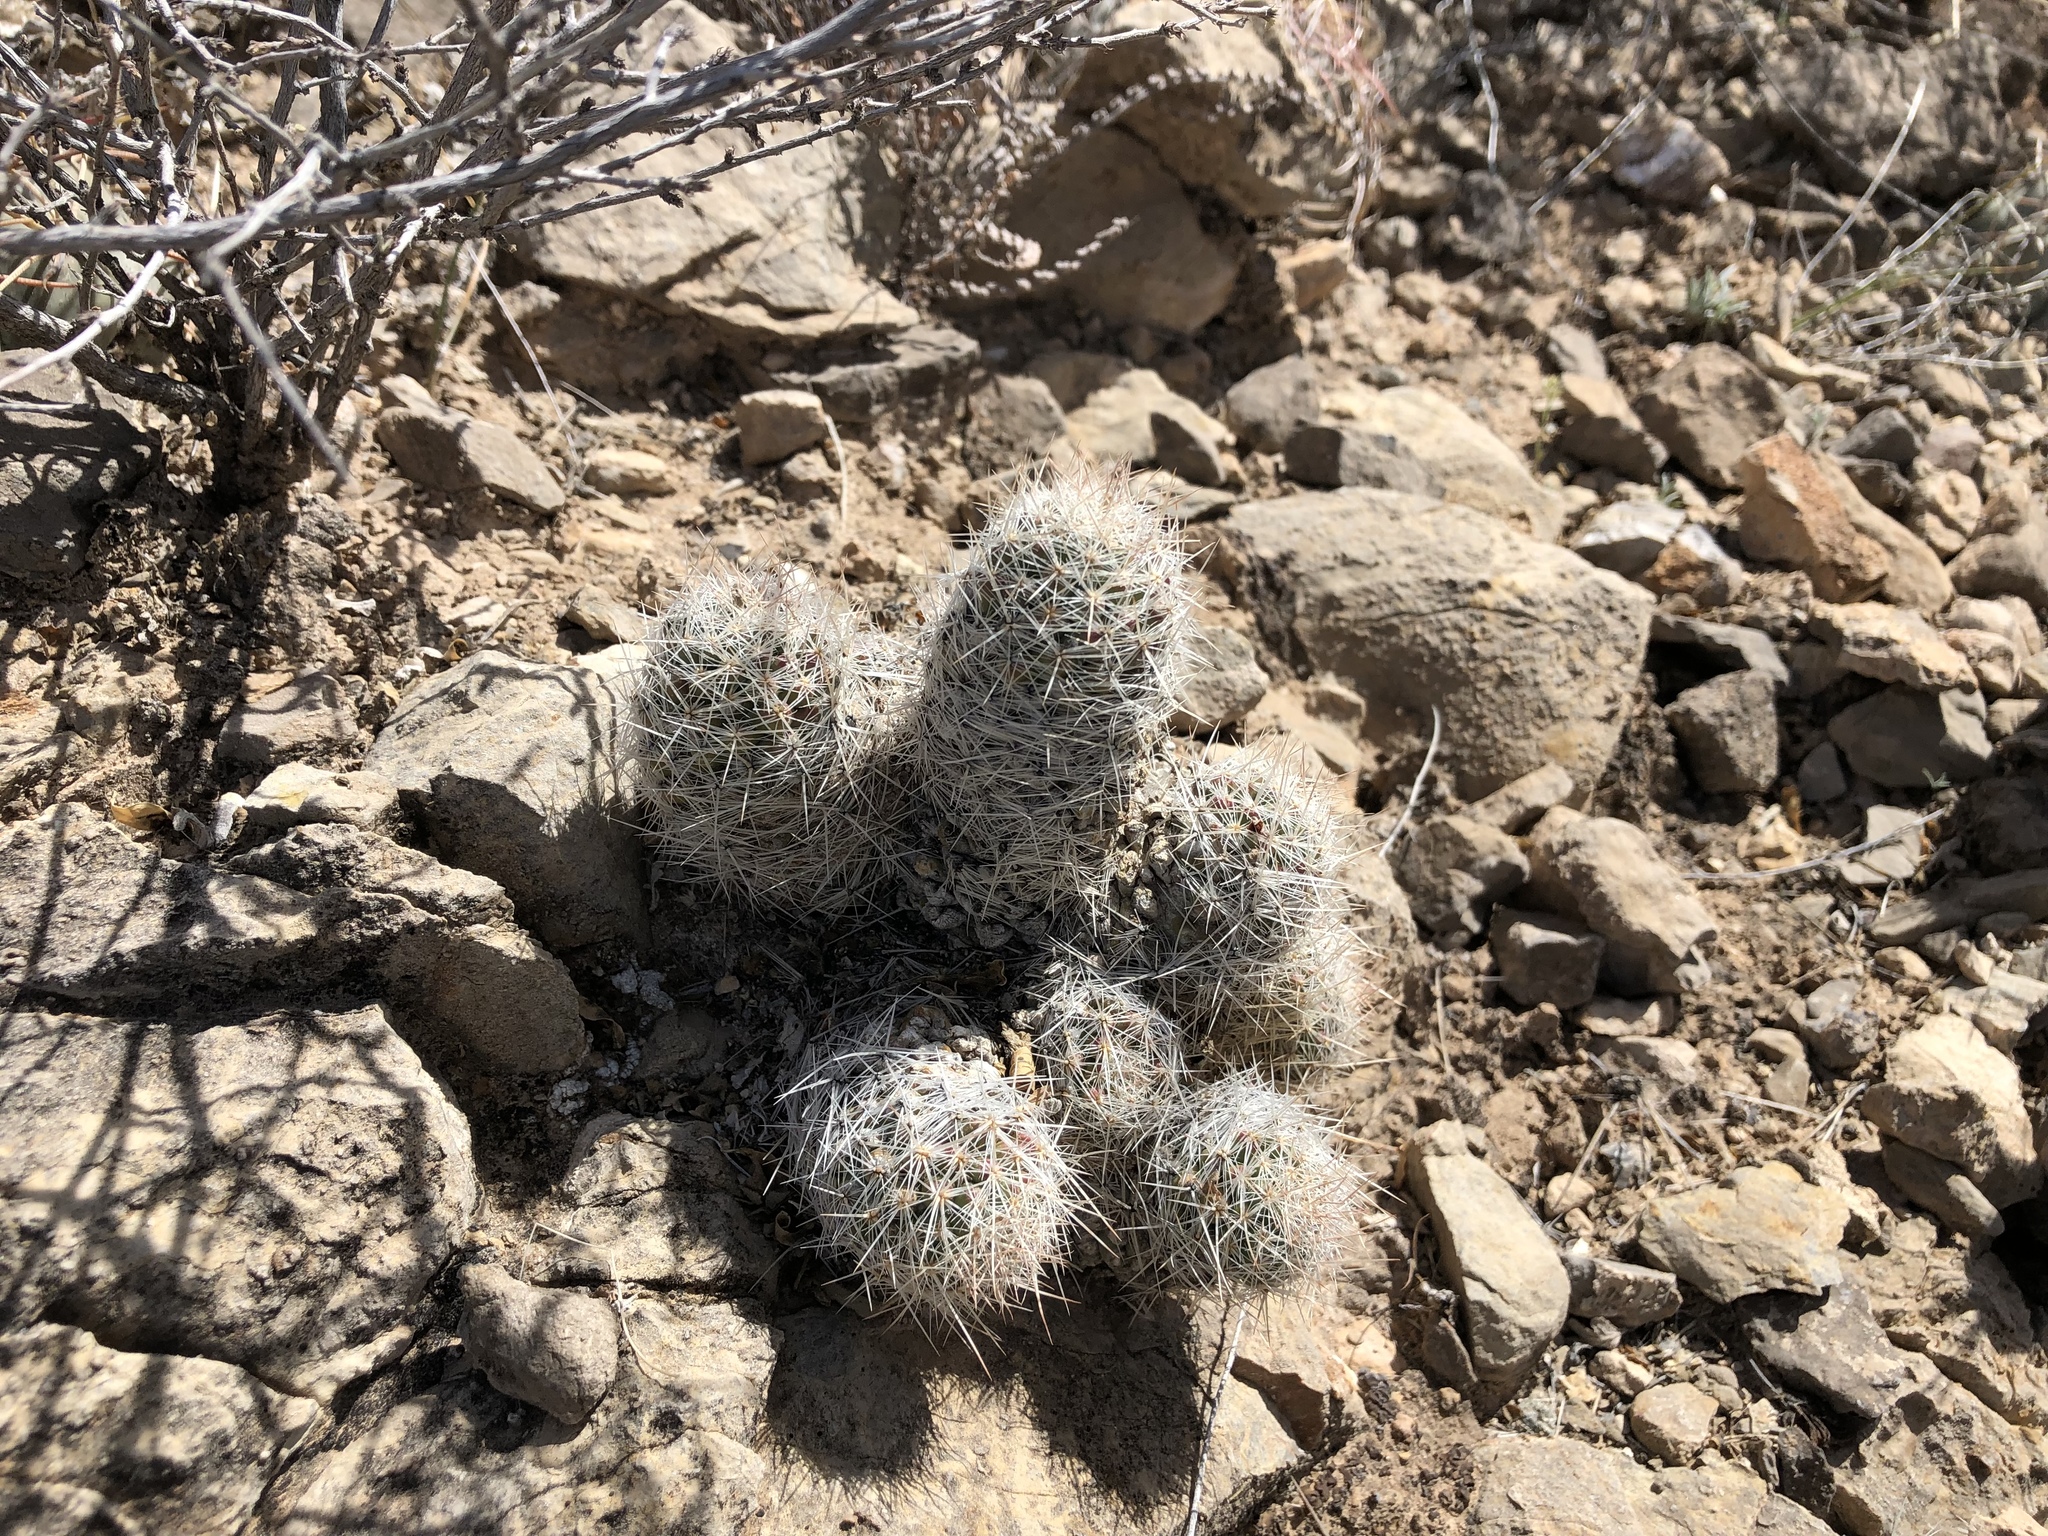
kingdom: Plantae
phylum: Tracheophyta
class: Magnoliopsida
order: Caryophyllales
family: Cactaceae
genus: Pelecyphora
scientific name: Pelecyphora tuberculosa
